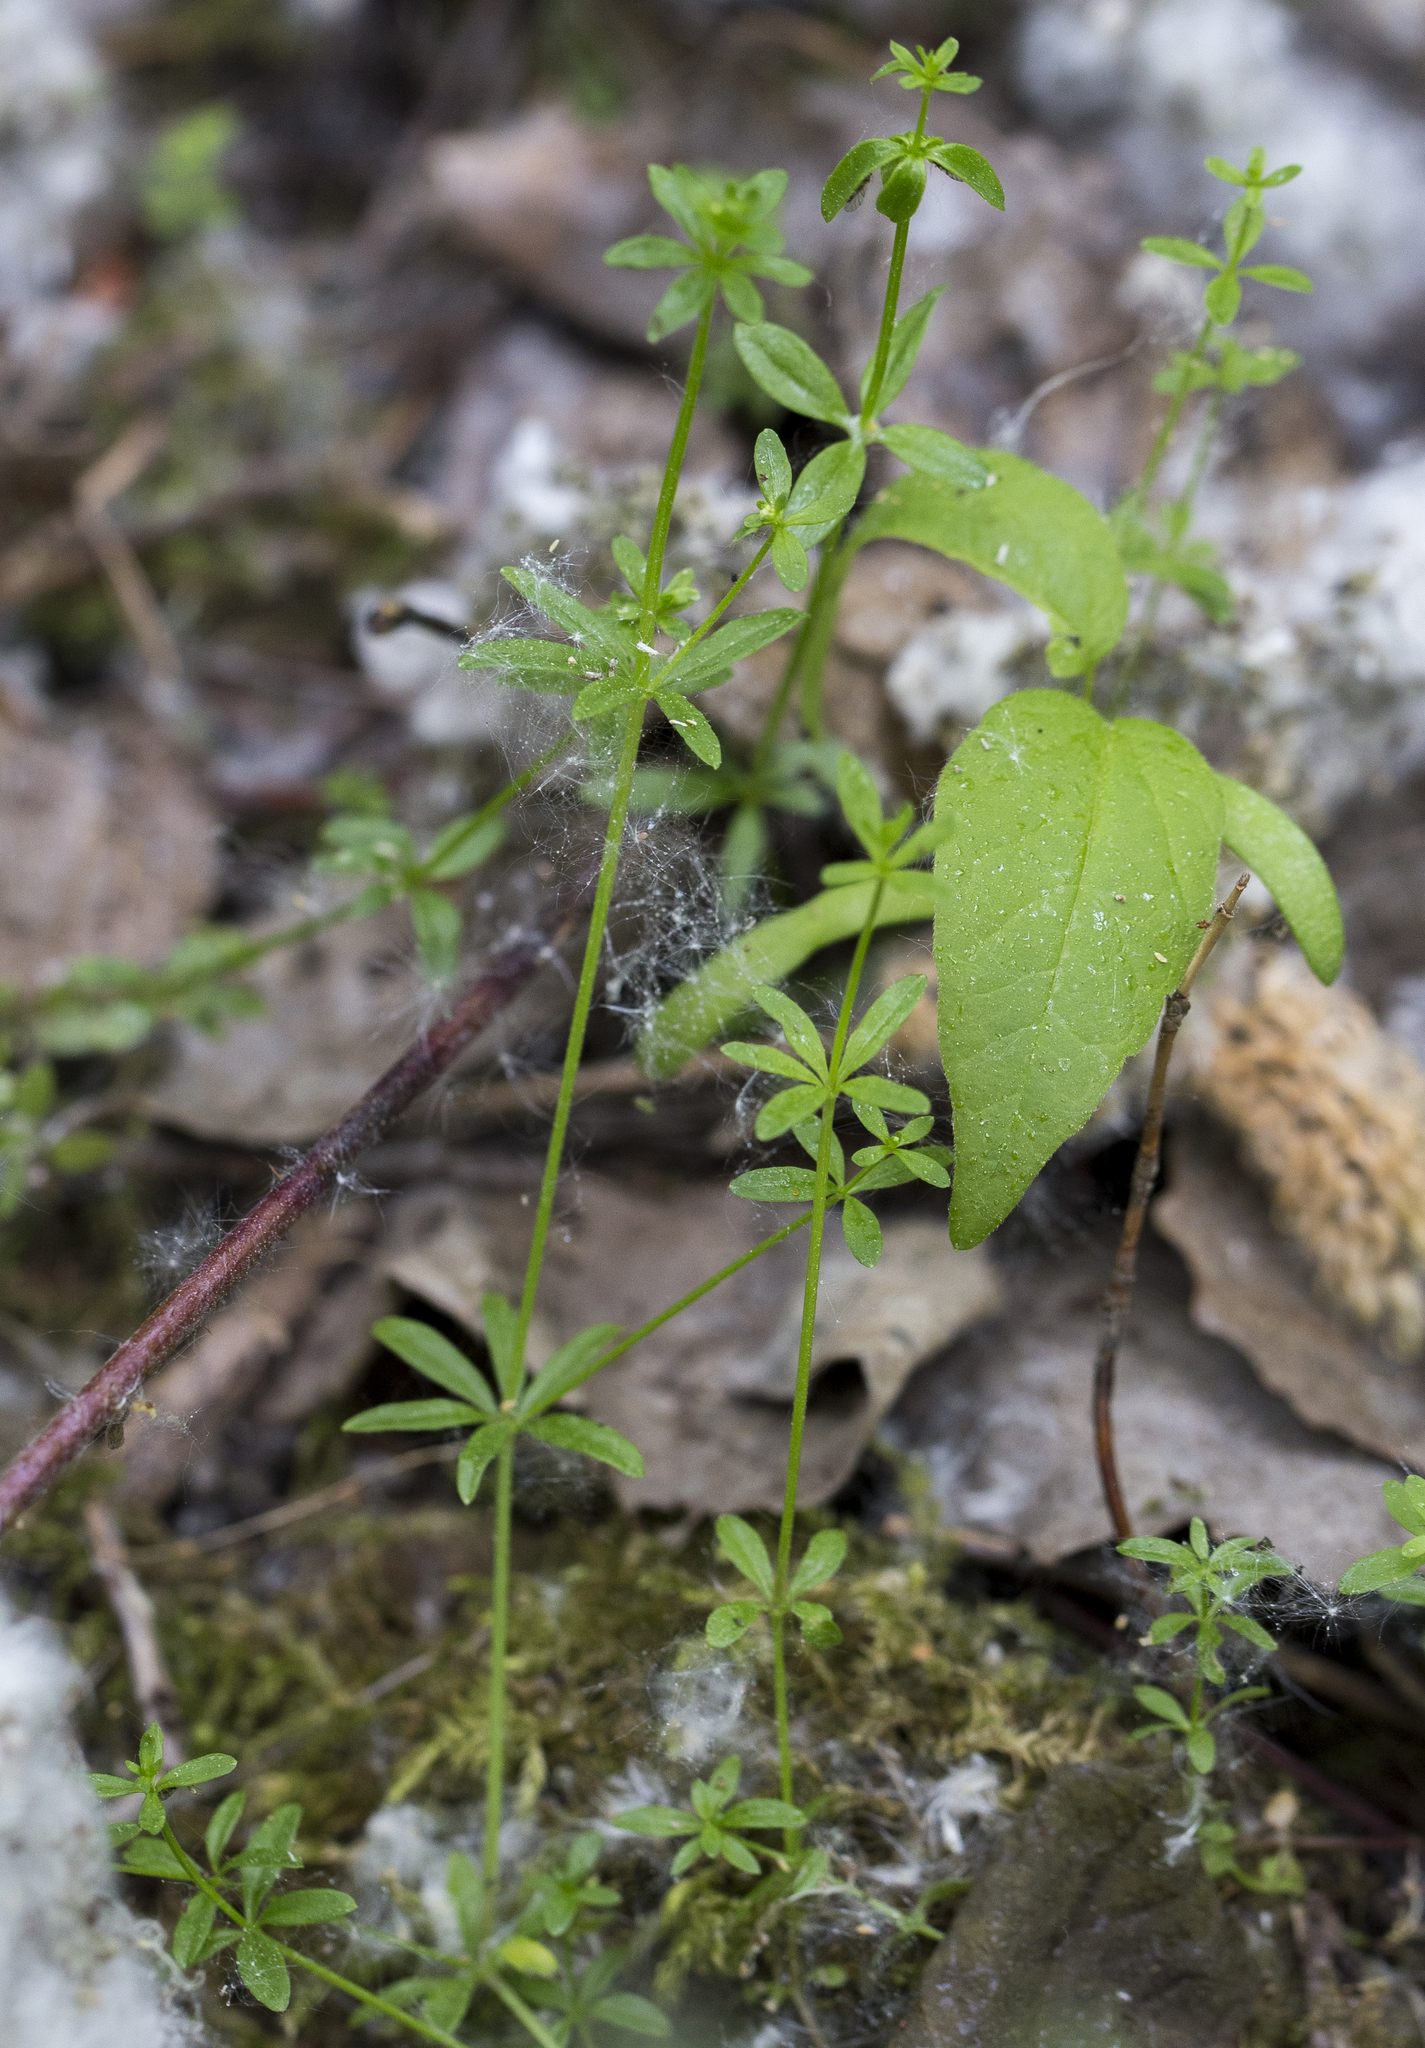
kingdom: Plantae
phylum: Tracheophyta
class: Magnoliopsida
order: Gentianales
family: Rubiaceae
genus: Galium
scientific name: Galium palustre
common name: Common marsh-bedstraw
